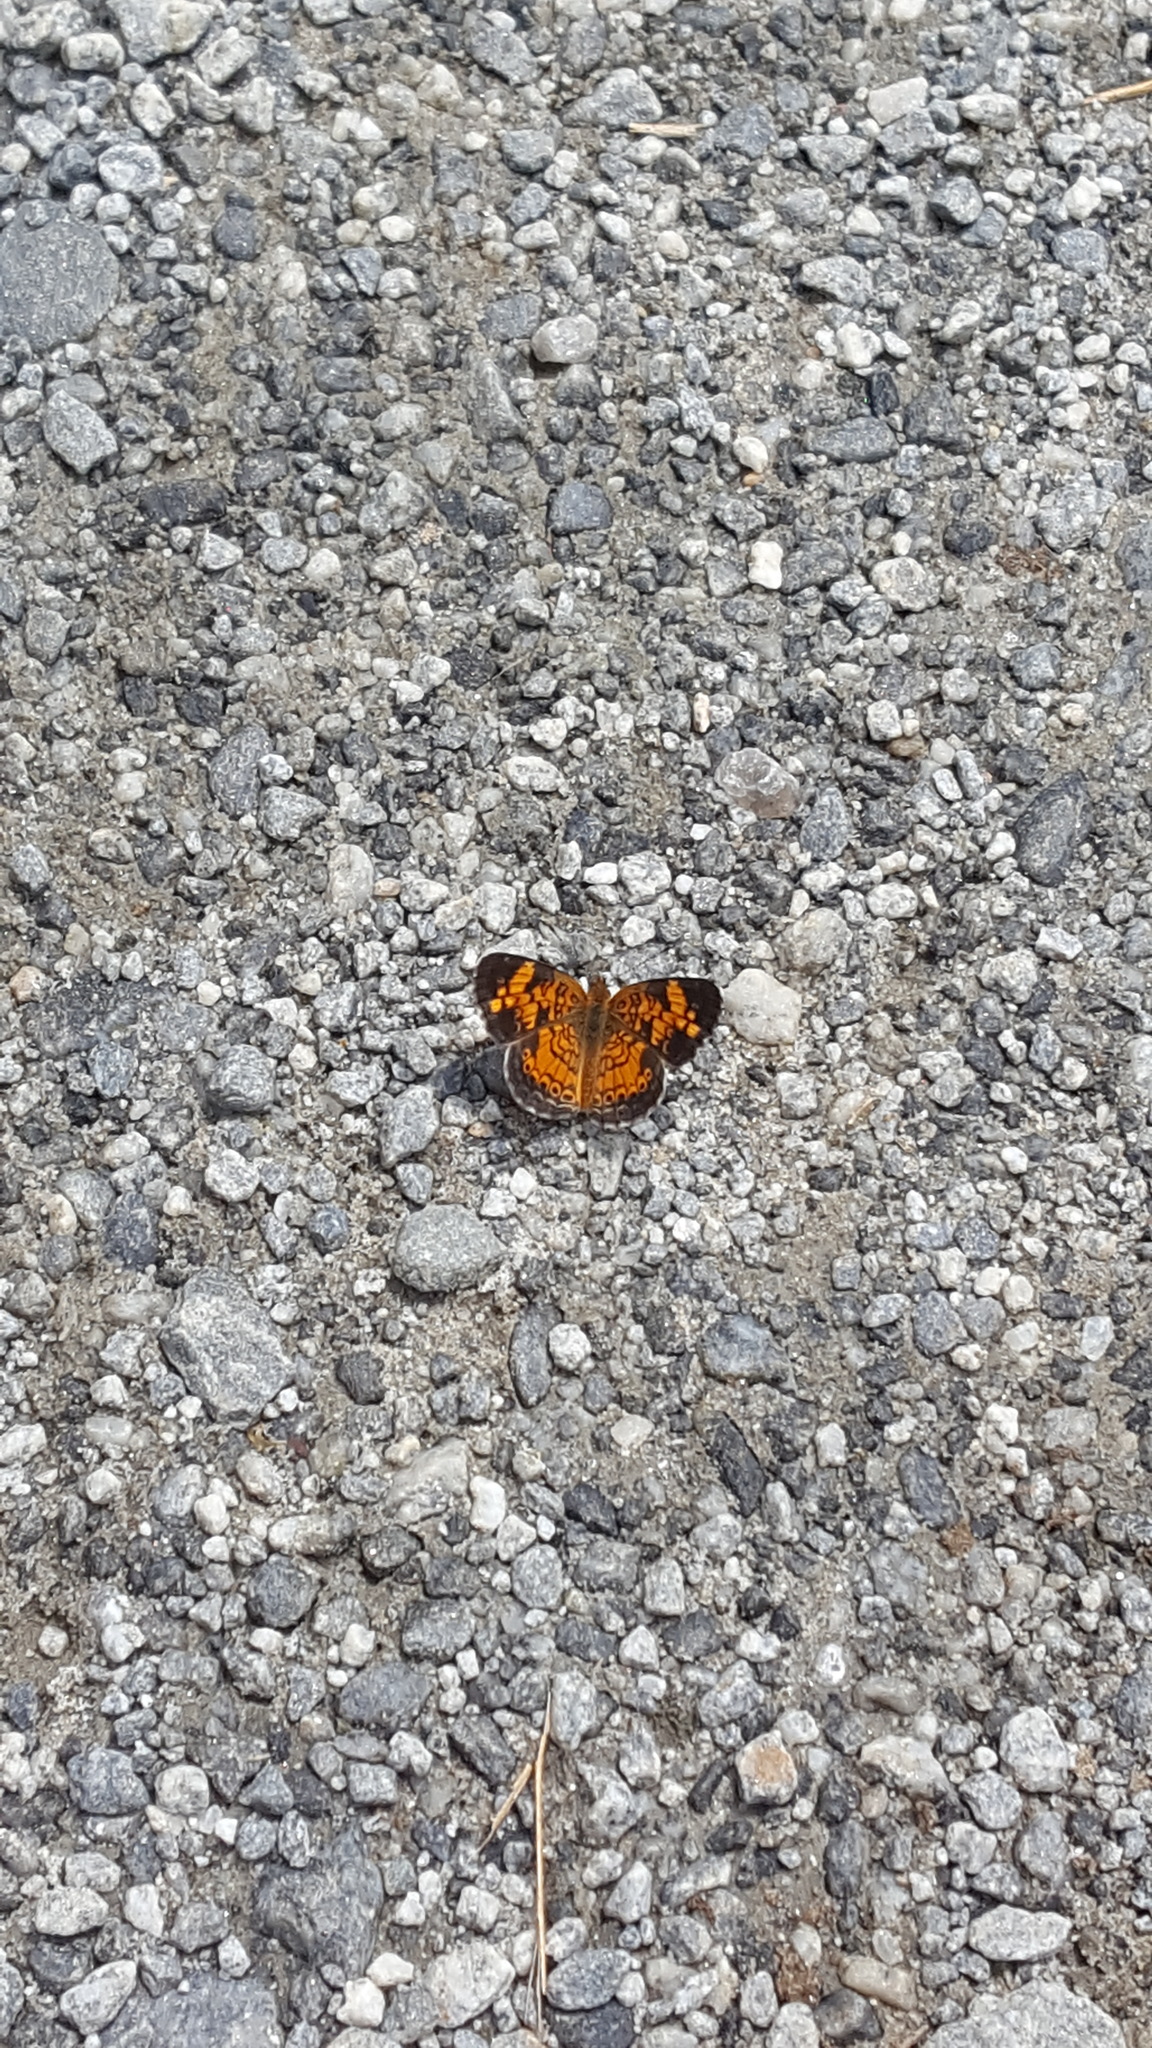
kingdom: Animalia
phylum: Arthropoda
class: Insecta
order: Lepidoptera
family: Nymphalidae
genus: Phyciodes
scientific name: Phyciodes tharos
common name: Pearl crescent
